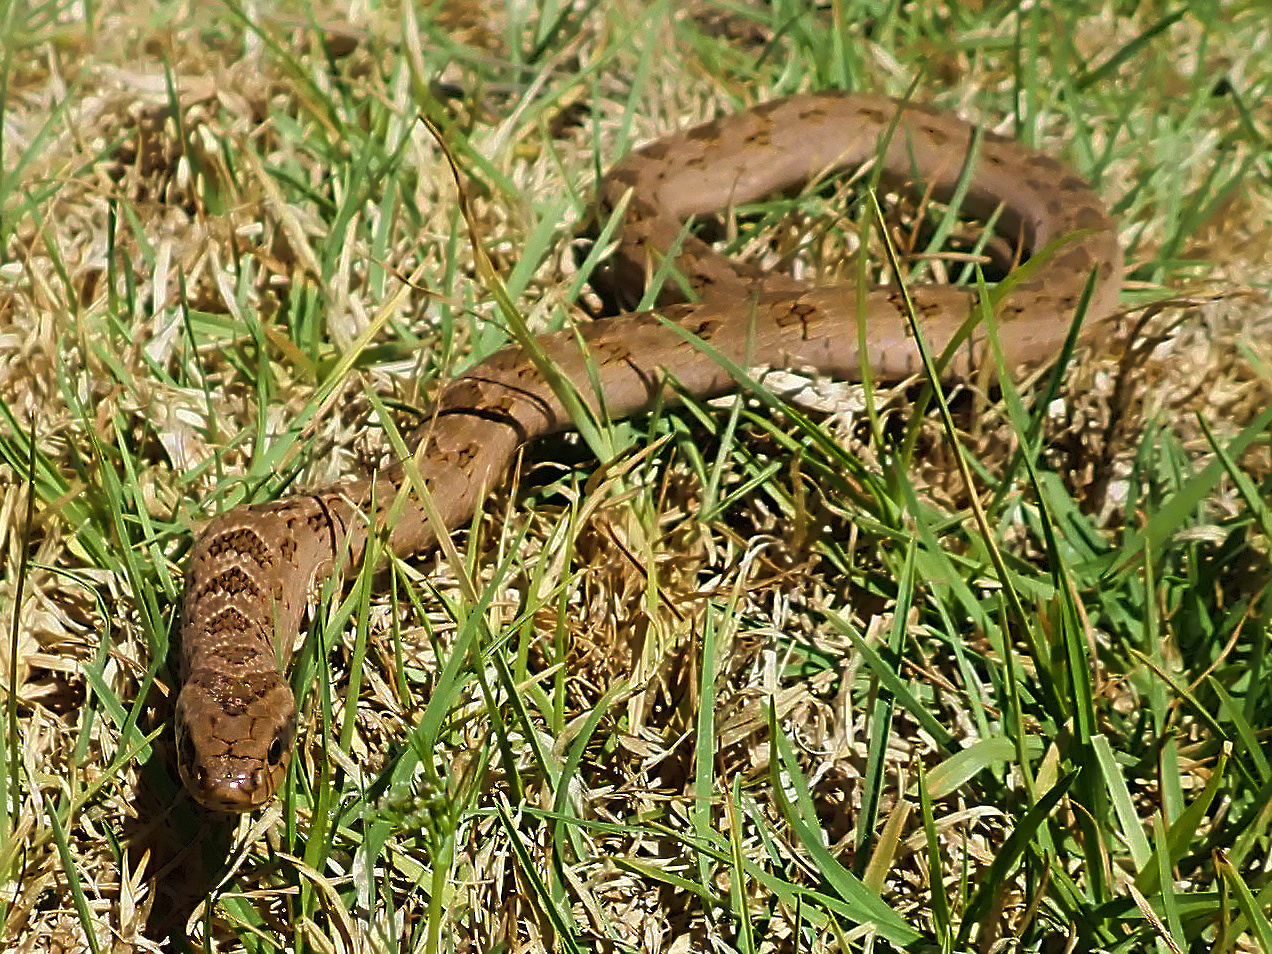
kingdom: Animalia
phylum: Chordata
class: Squamata
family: Viperidae
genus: Causus
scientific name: Causus rhombeatus
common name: Common night adder
